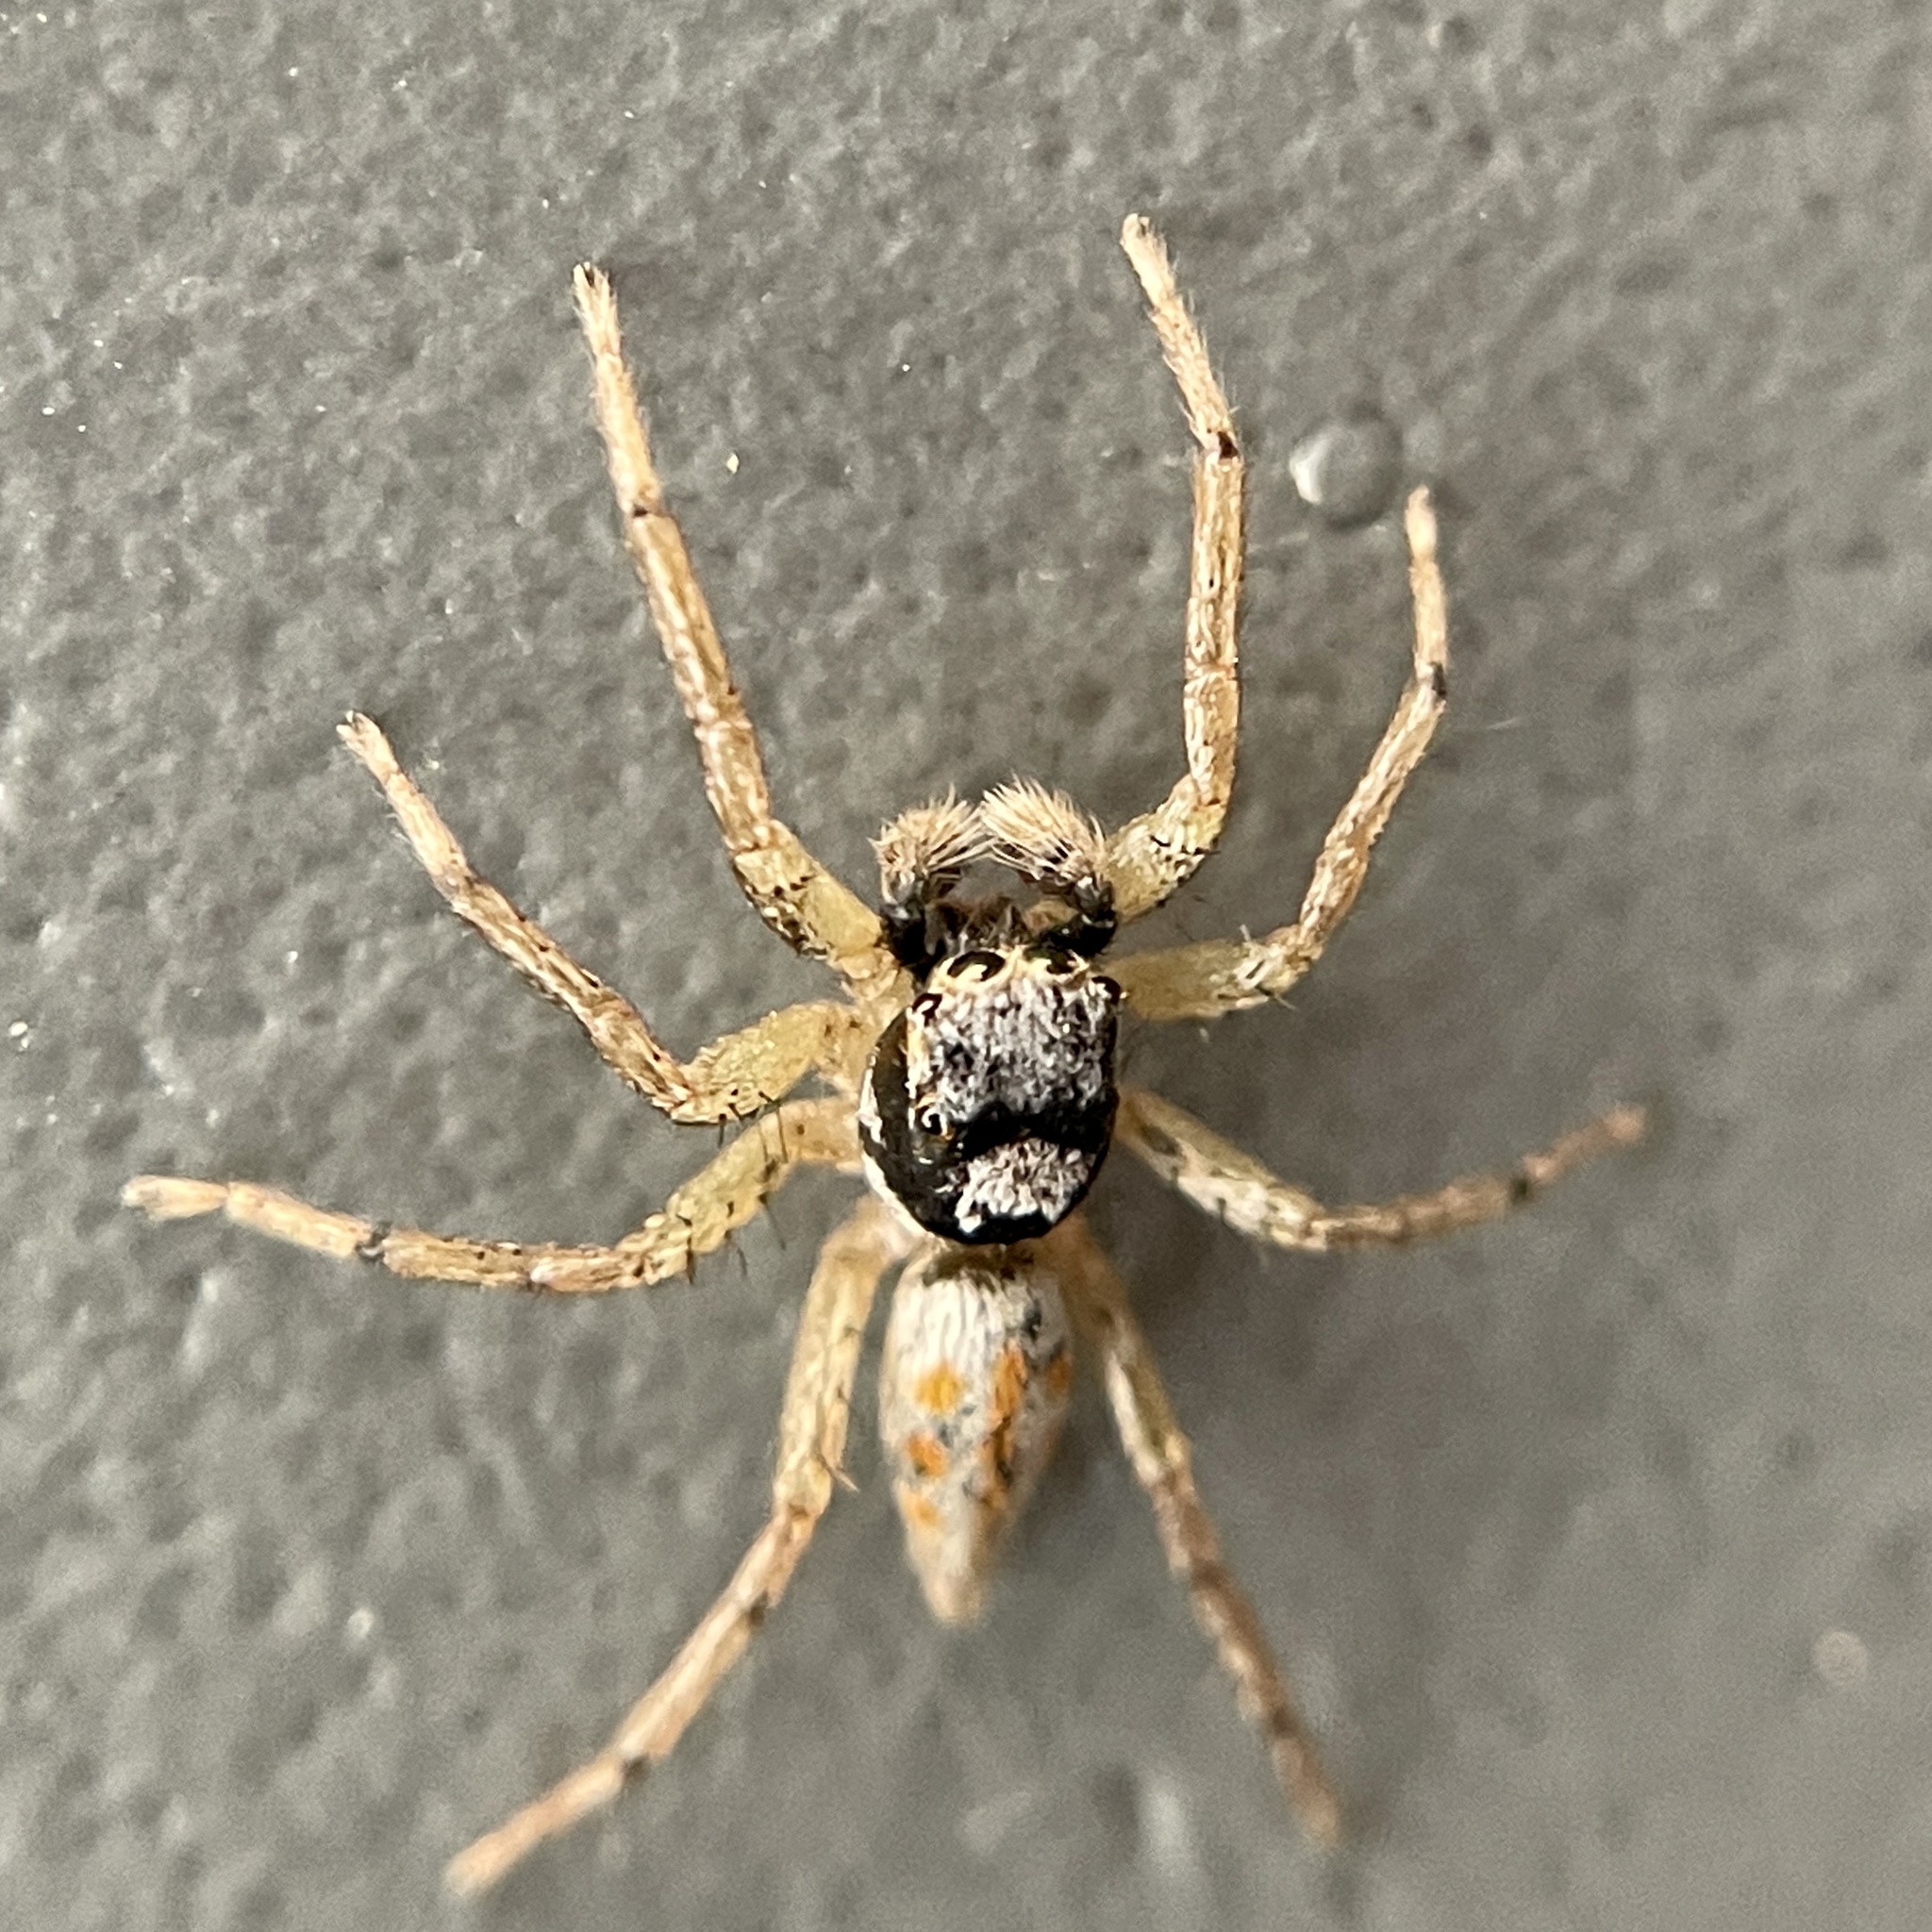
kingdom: Animalia
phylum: Arthropoda
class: Arachnida
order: Araneae
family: Salticidae
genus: Paramaevia
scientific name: Paramaevia poultoni
